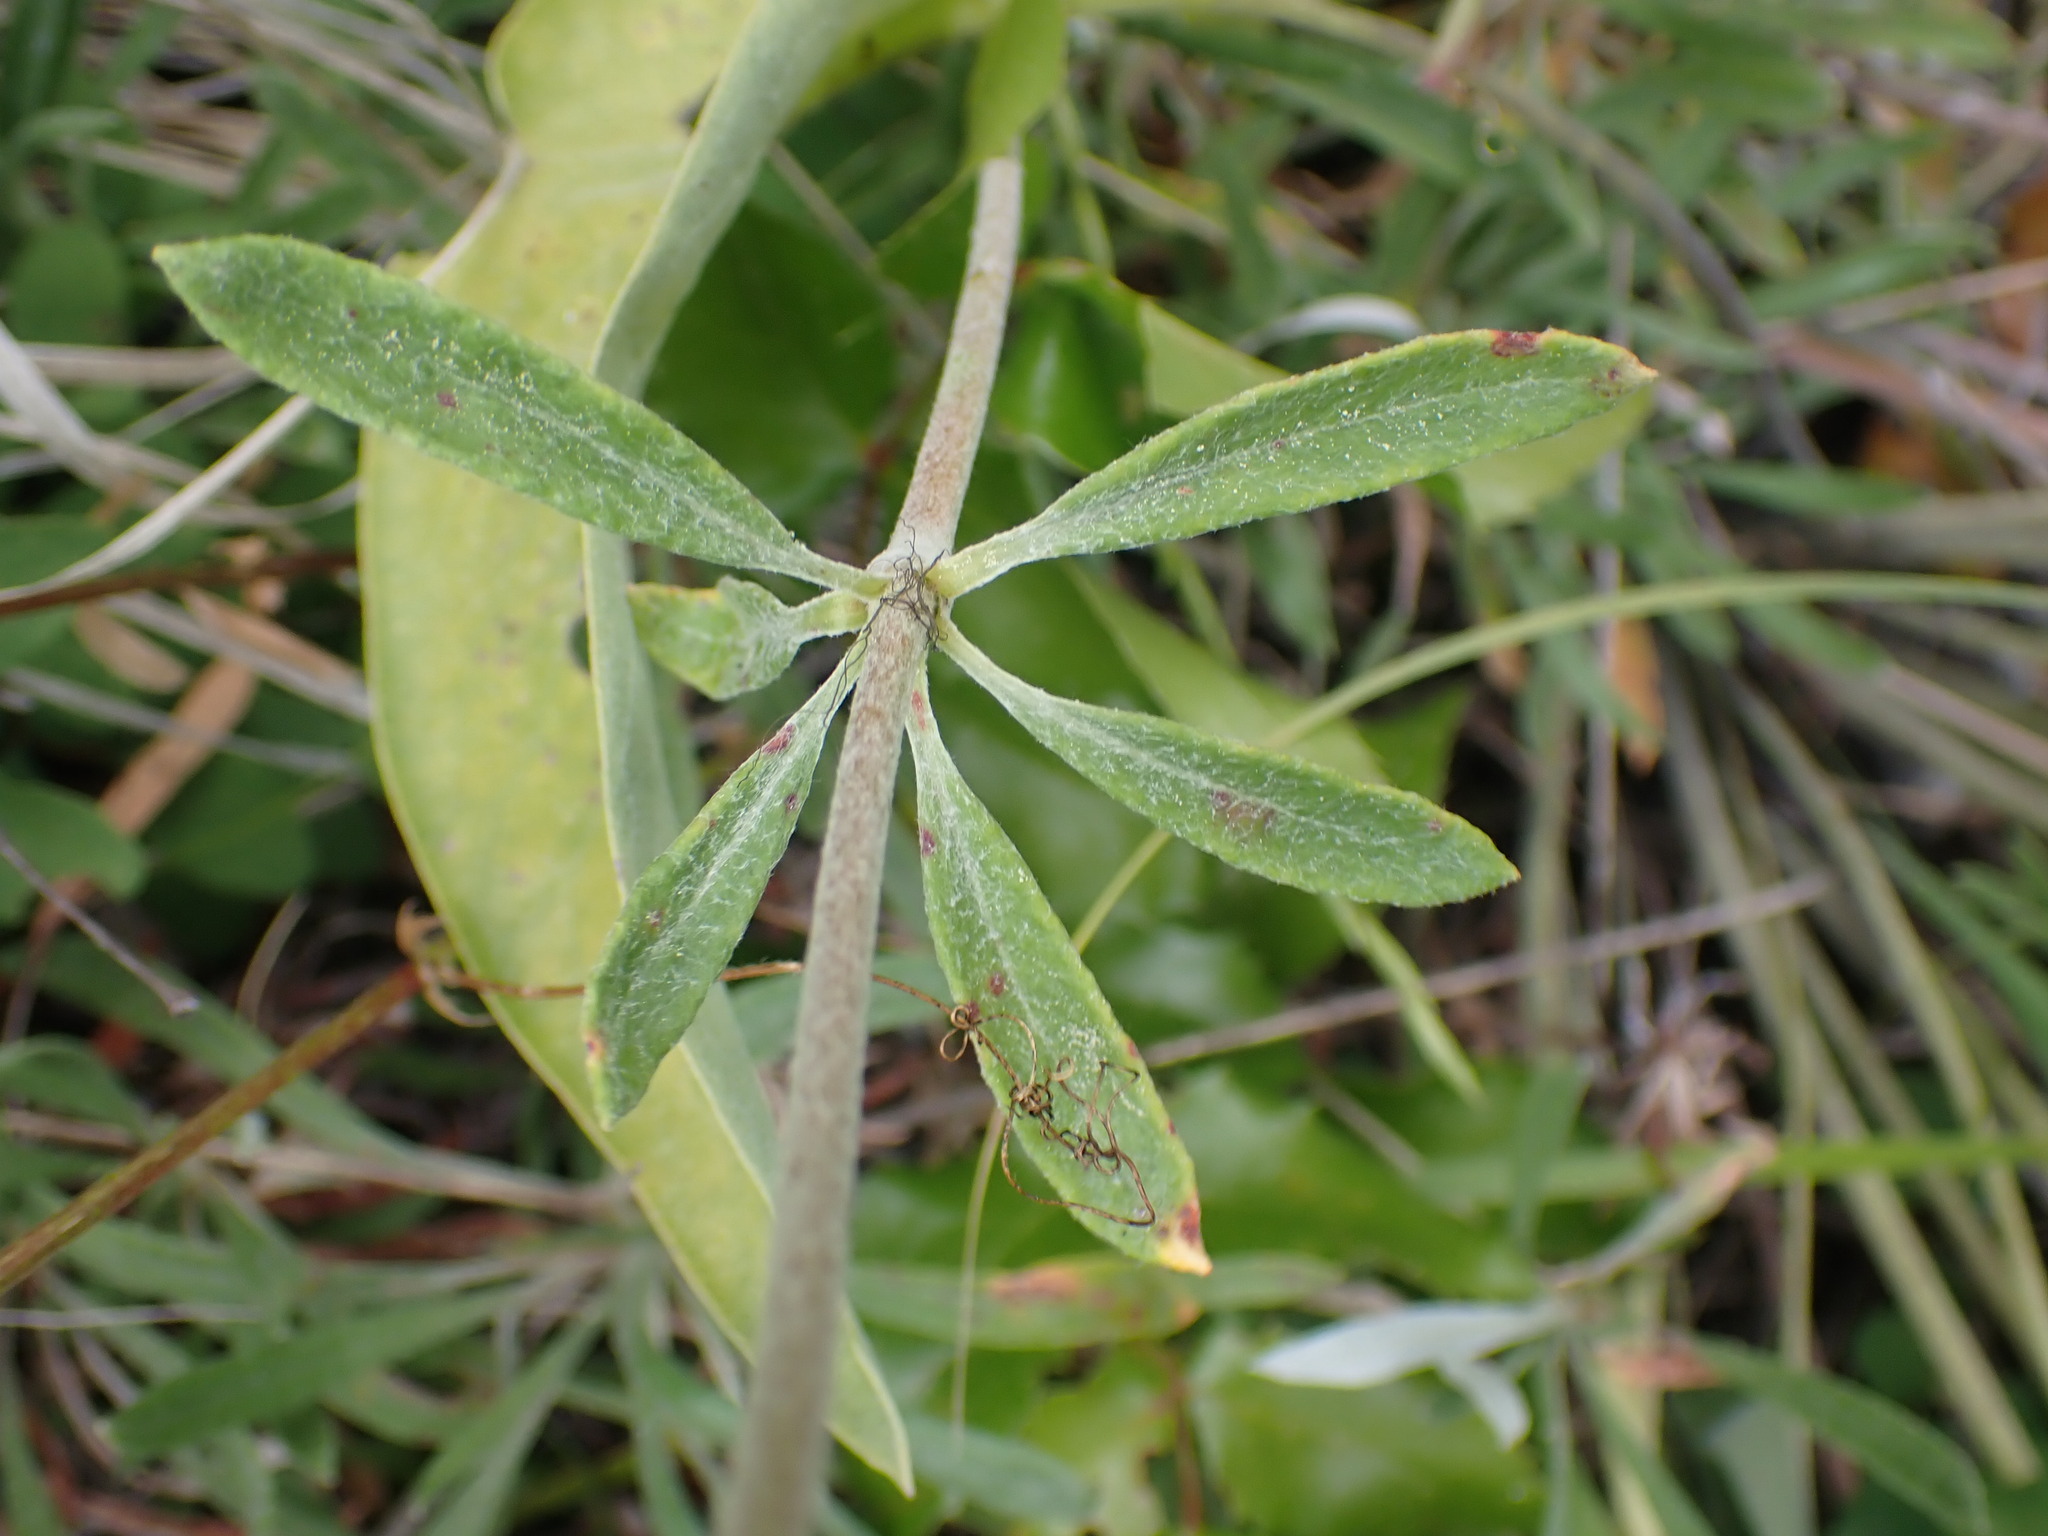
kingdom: Plantae
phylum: Tracheophyta
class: Magnoliopsida
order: Caryophyllales
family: Polygonaceae
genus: Eriogonum
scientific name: Eriogonum heracleoides
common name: Wyeth's buckwheat
